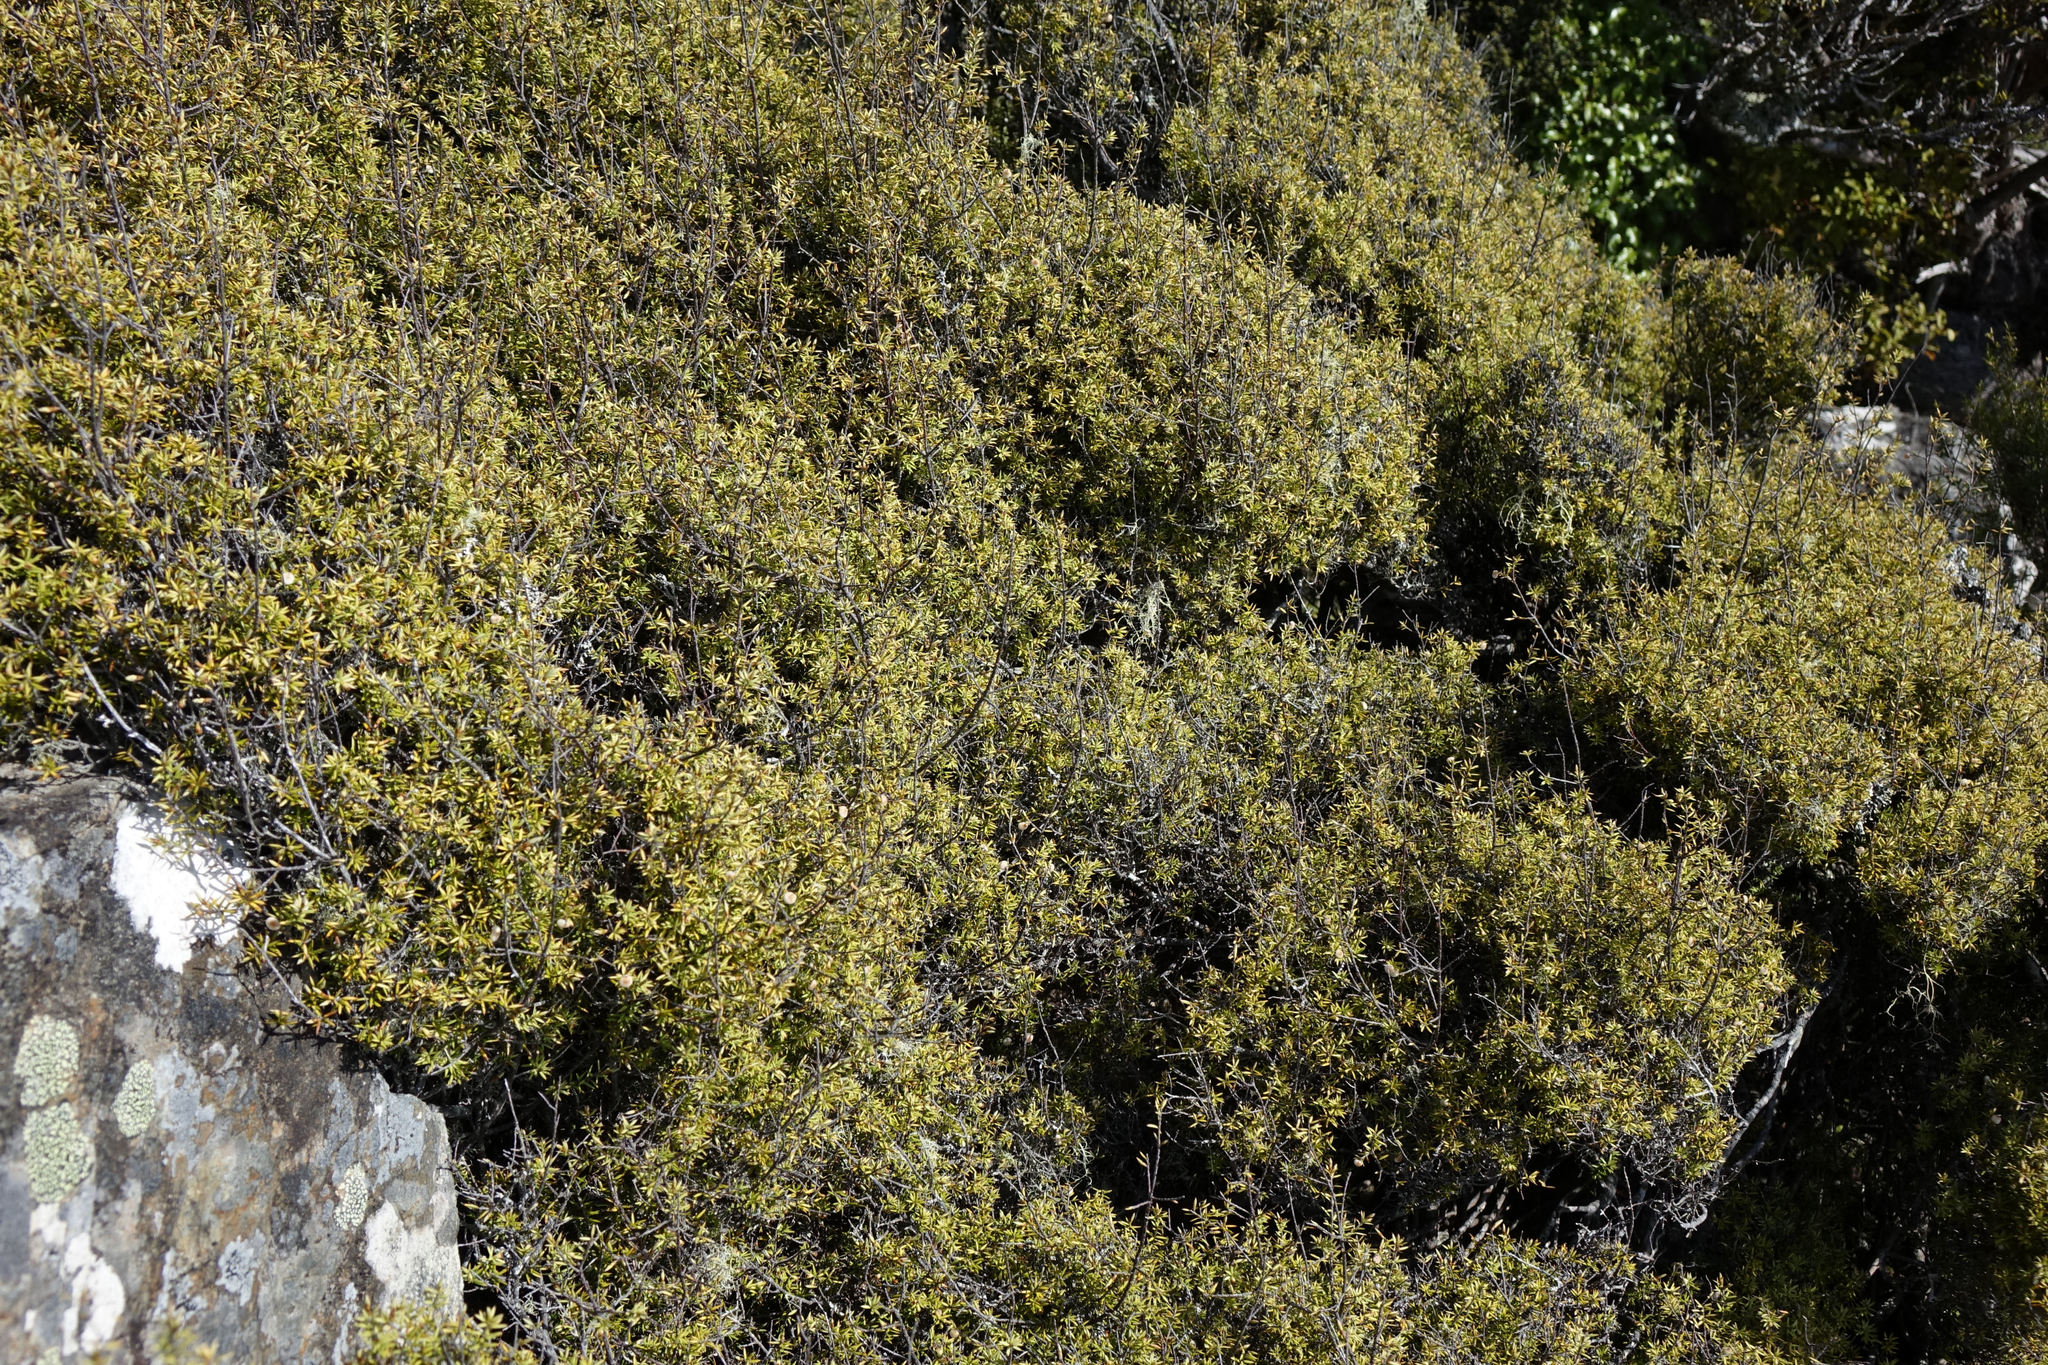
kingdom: Plantae
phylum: Tracheophyta
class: Magnoliopsida
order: Ericales
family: Ericaceae
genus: Leptecophylla
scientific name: Leptecophylla juniperina
